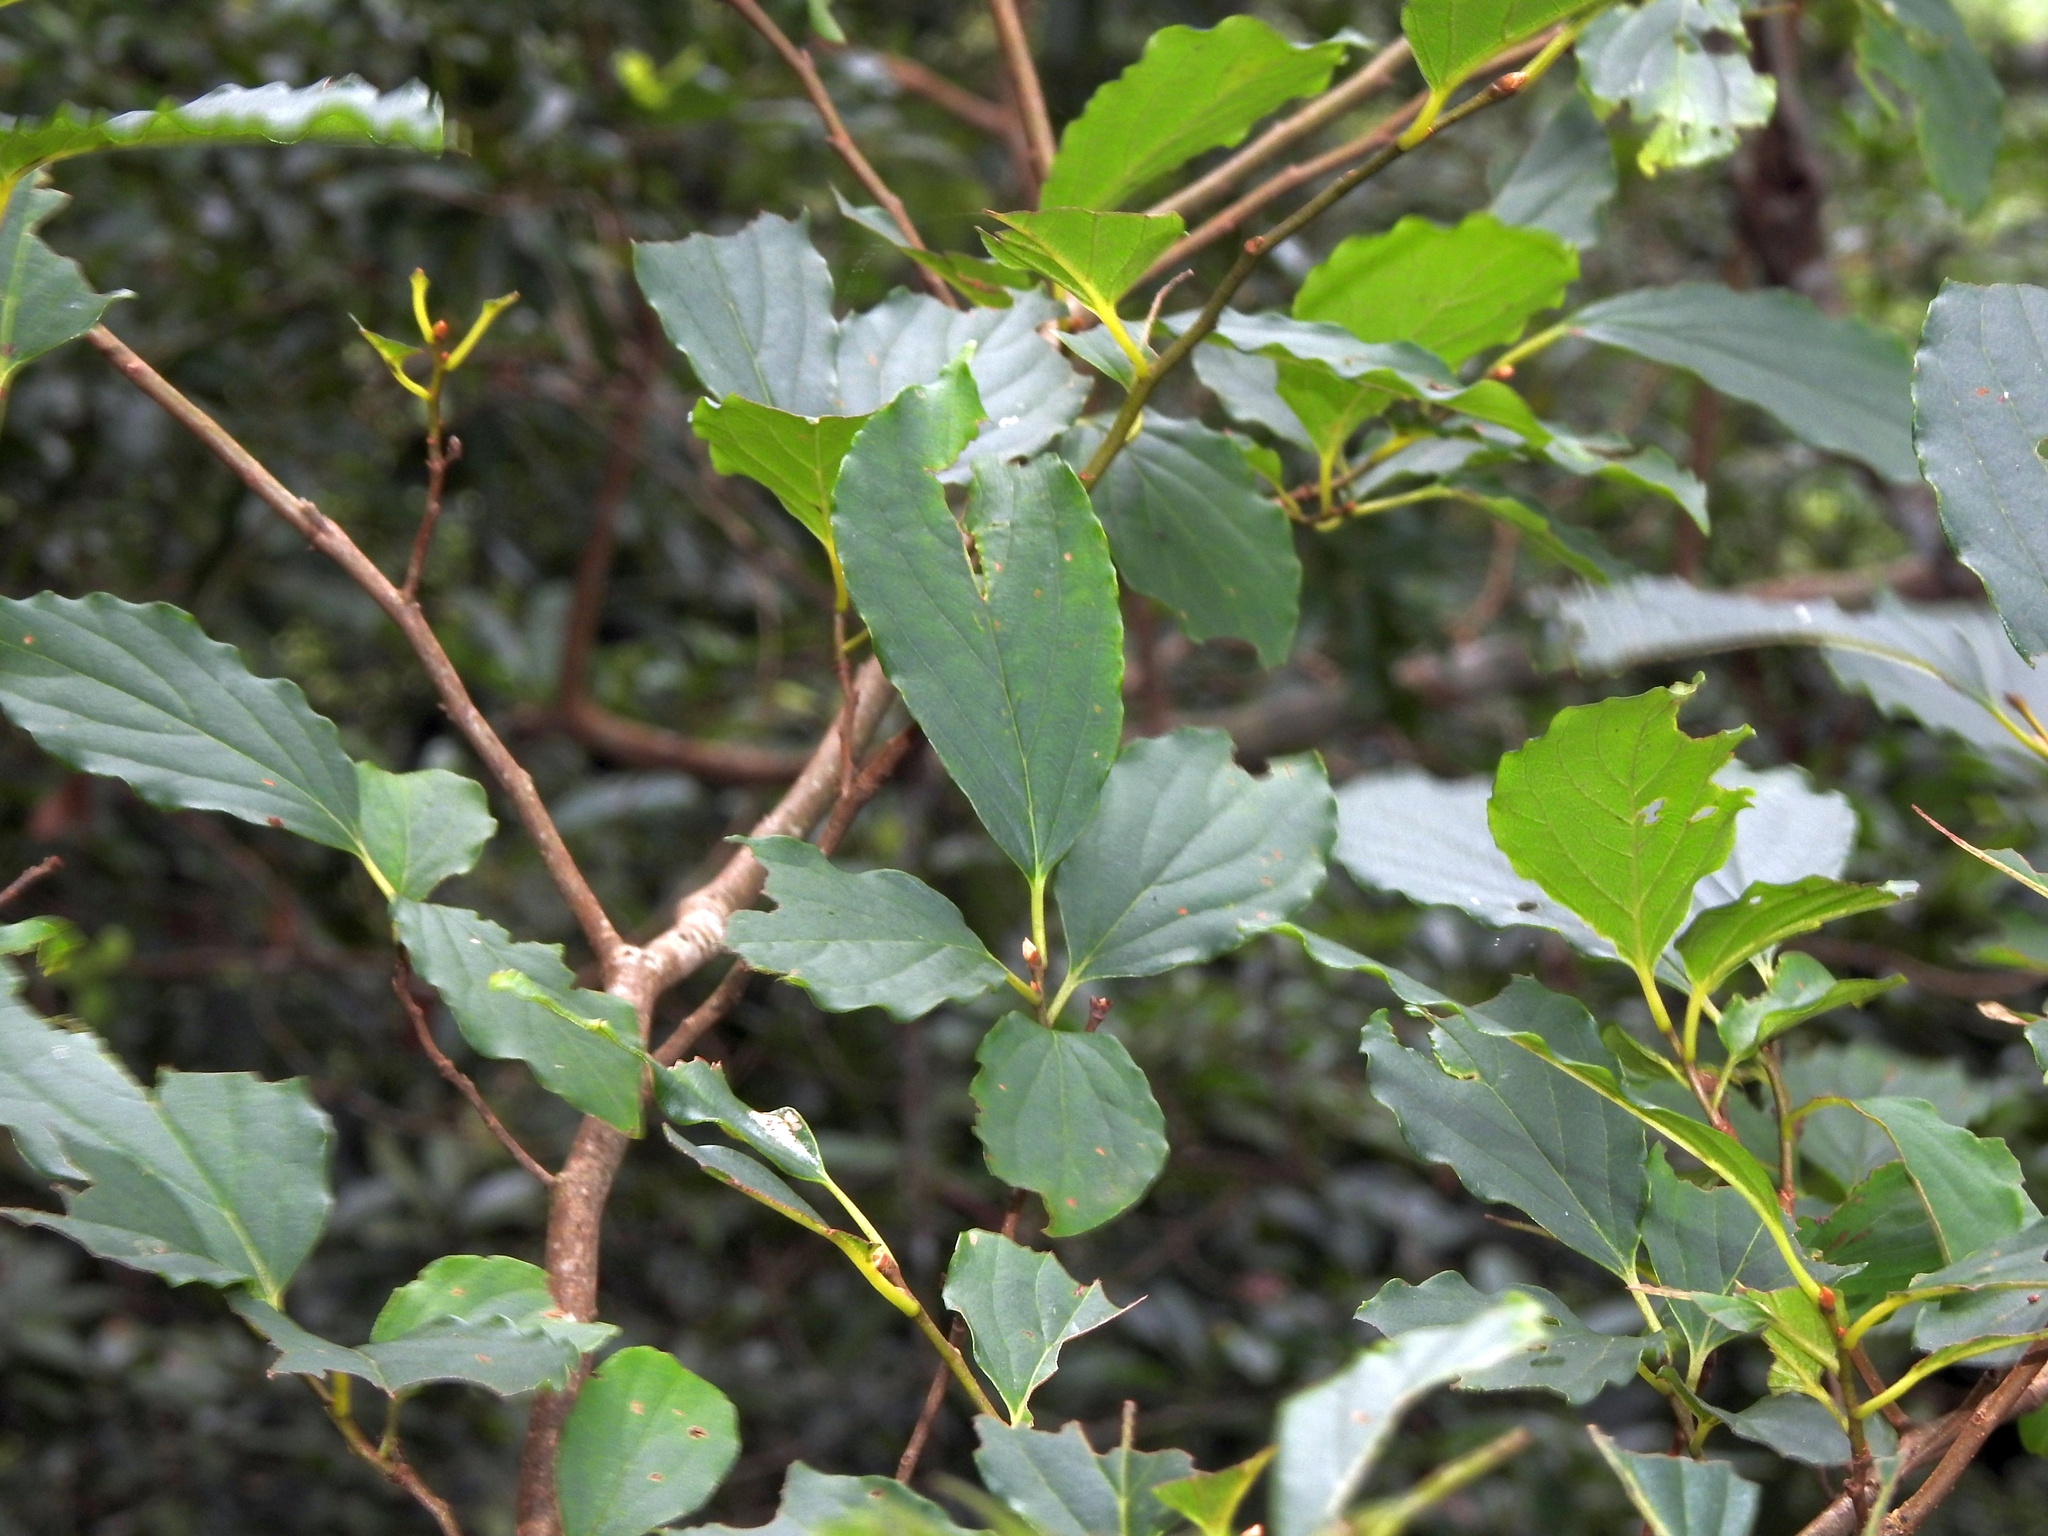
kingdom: Plantae
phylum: Tracheophyta
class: Magnoliopsida
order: Ericales
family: Ebenaceae
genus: Diospyros
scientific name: Diospyros oldhamii
